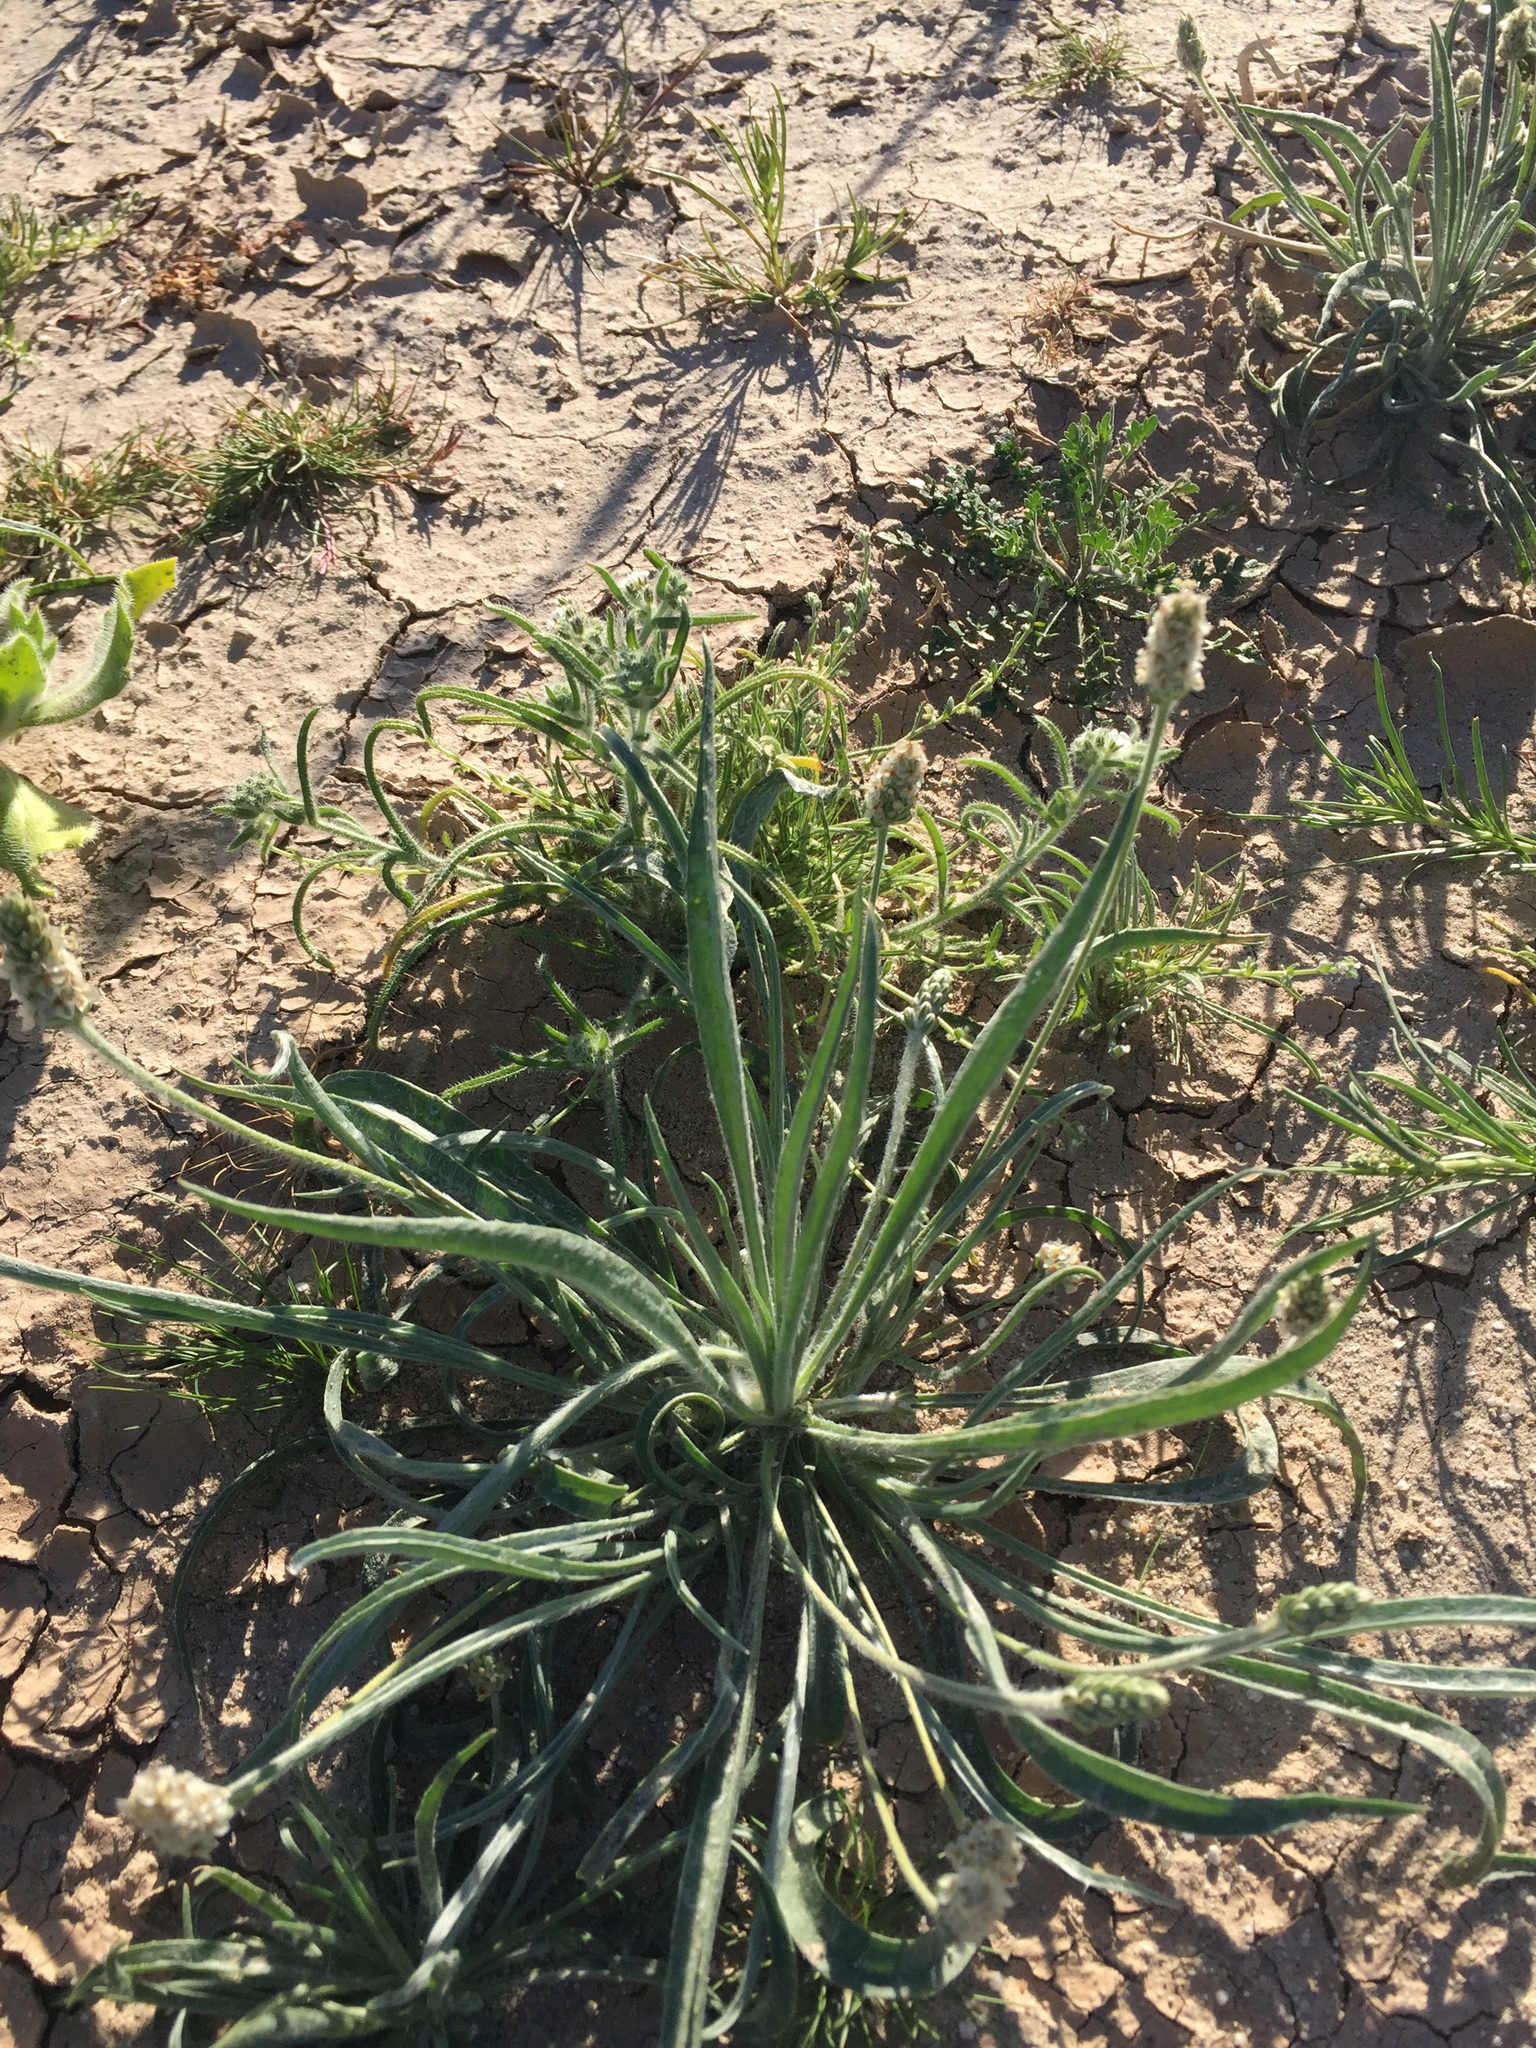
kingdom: Plantae
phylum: Tracheophyta
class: Magnoliopsida
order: Lamiales
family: Plantaginaceae
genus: Plantago
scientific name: Plantago ovata
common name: Blond plantain
